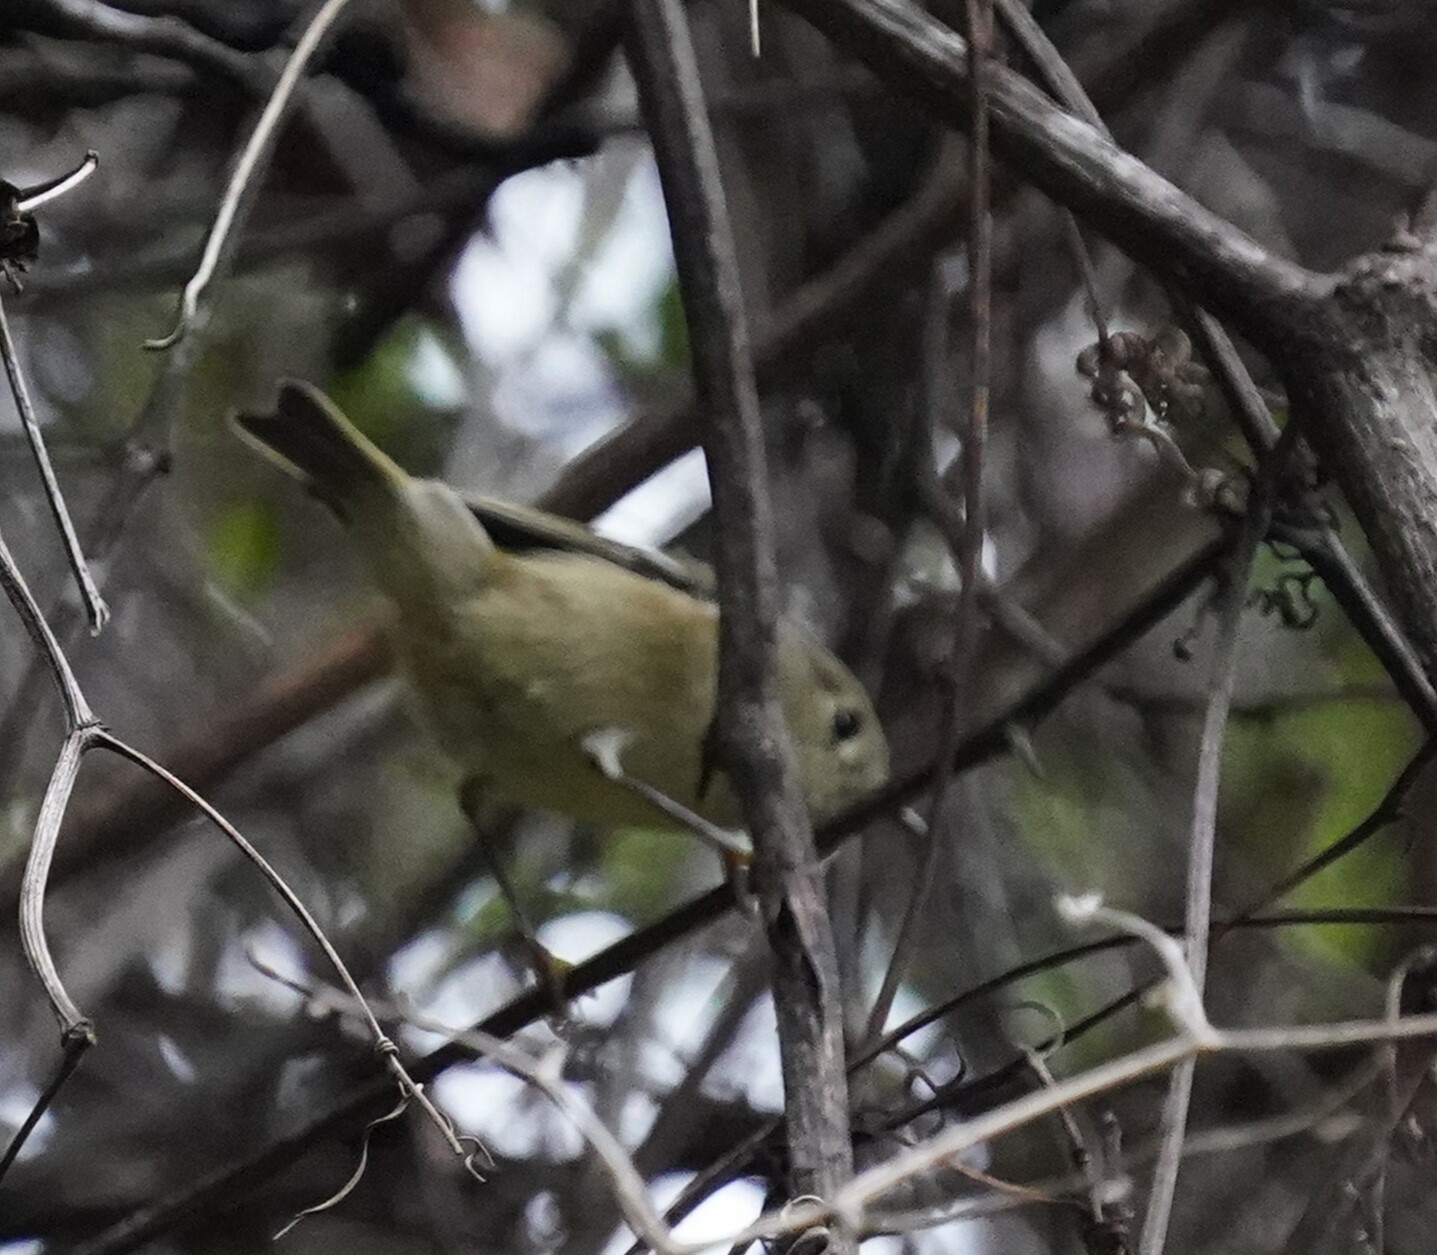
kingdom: Animalia
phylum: Chordata
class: Aves
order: Passeriformes
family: Regulidae
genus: Regulus
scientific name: Regulus calendula
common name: Ruby-crowned kinglet
